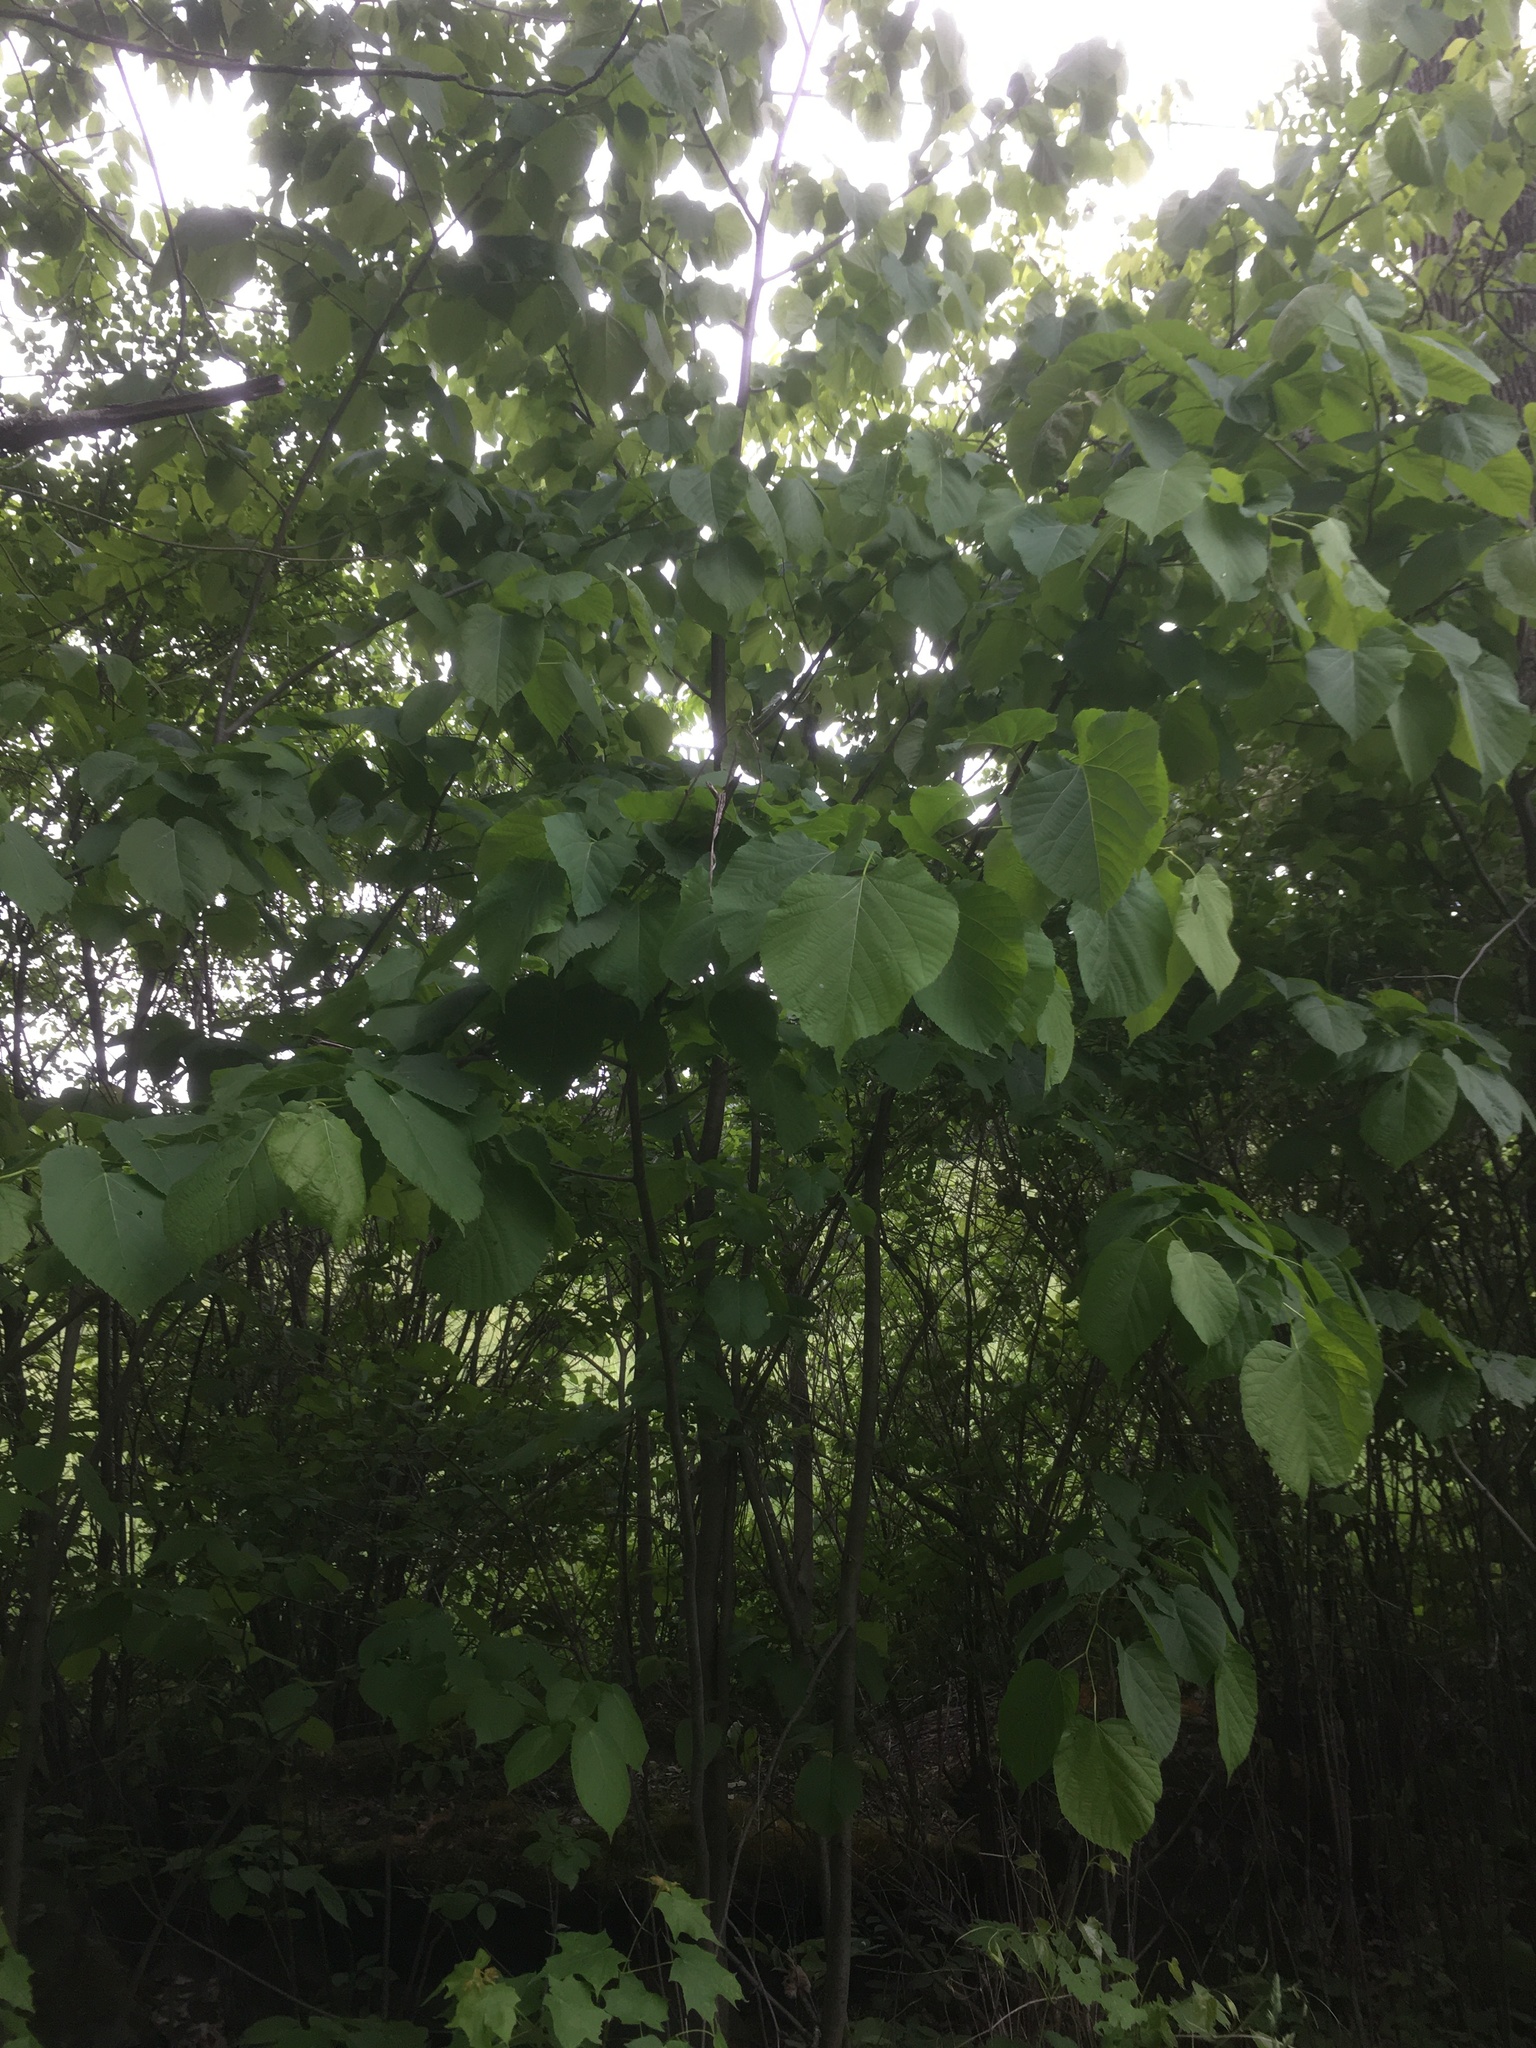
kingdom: Plantae
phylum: Tracheophyta
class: Magnoliopsida
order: Malvales
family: Malvaceae
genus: Tilia
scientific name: Tilia americana
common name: Basswood
